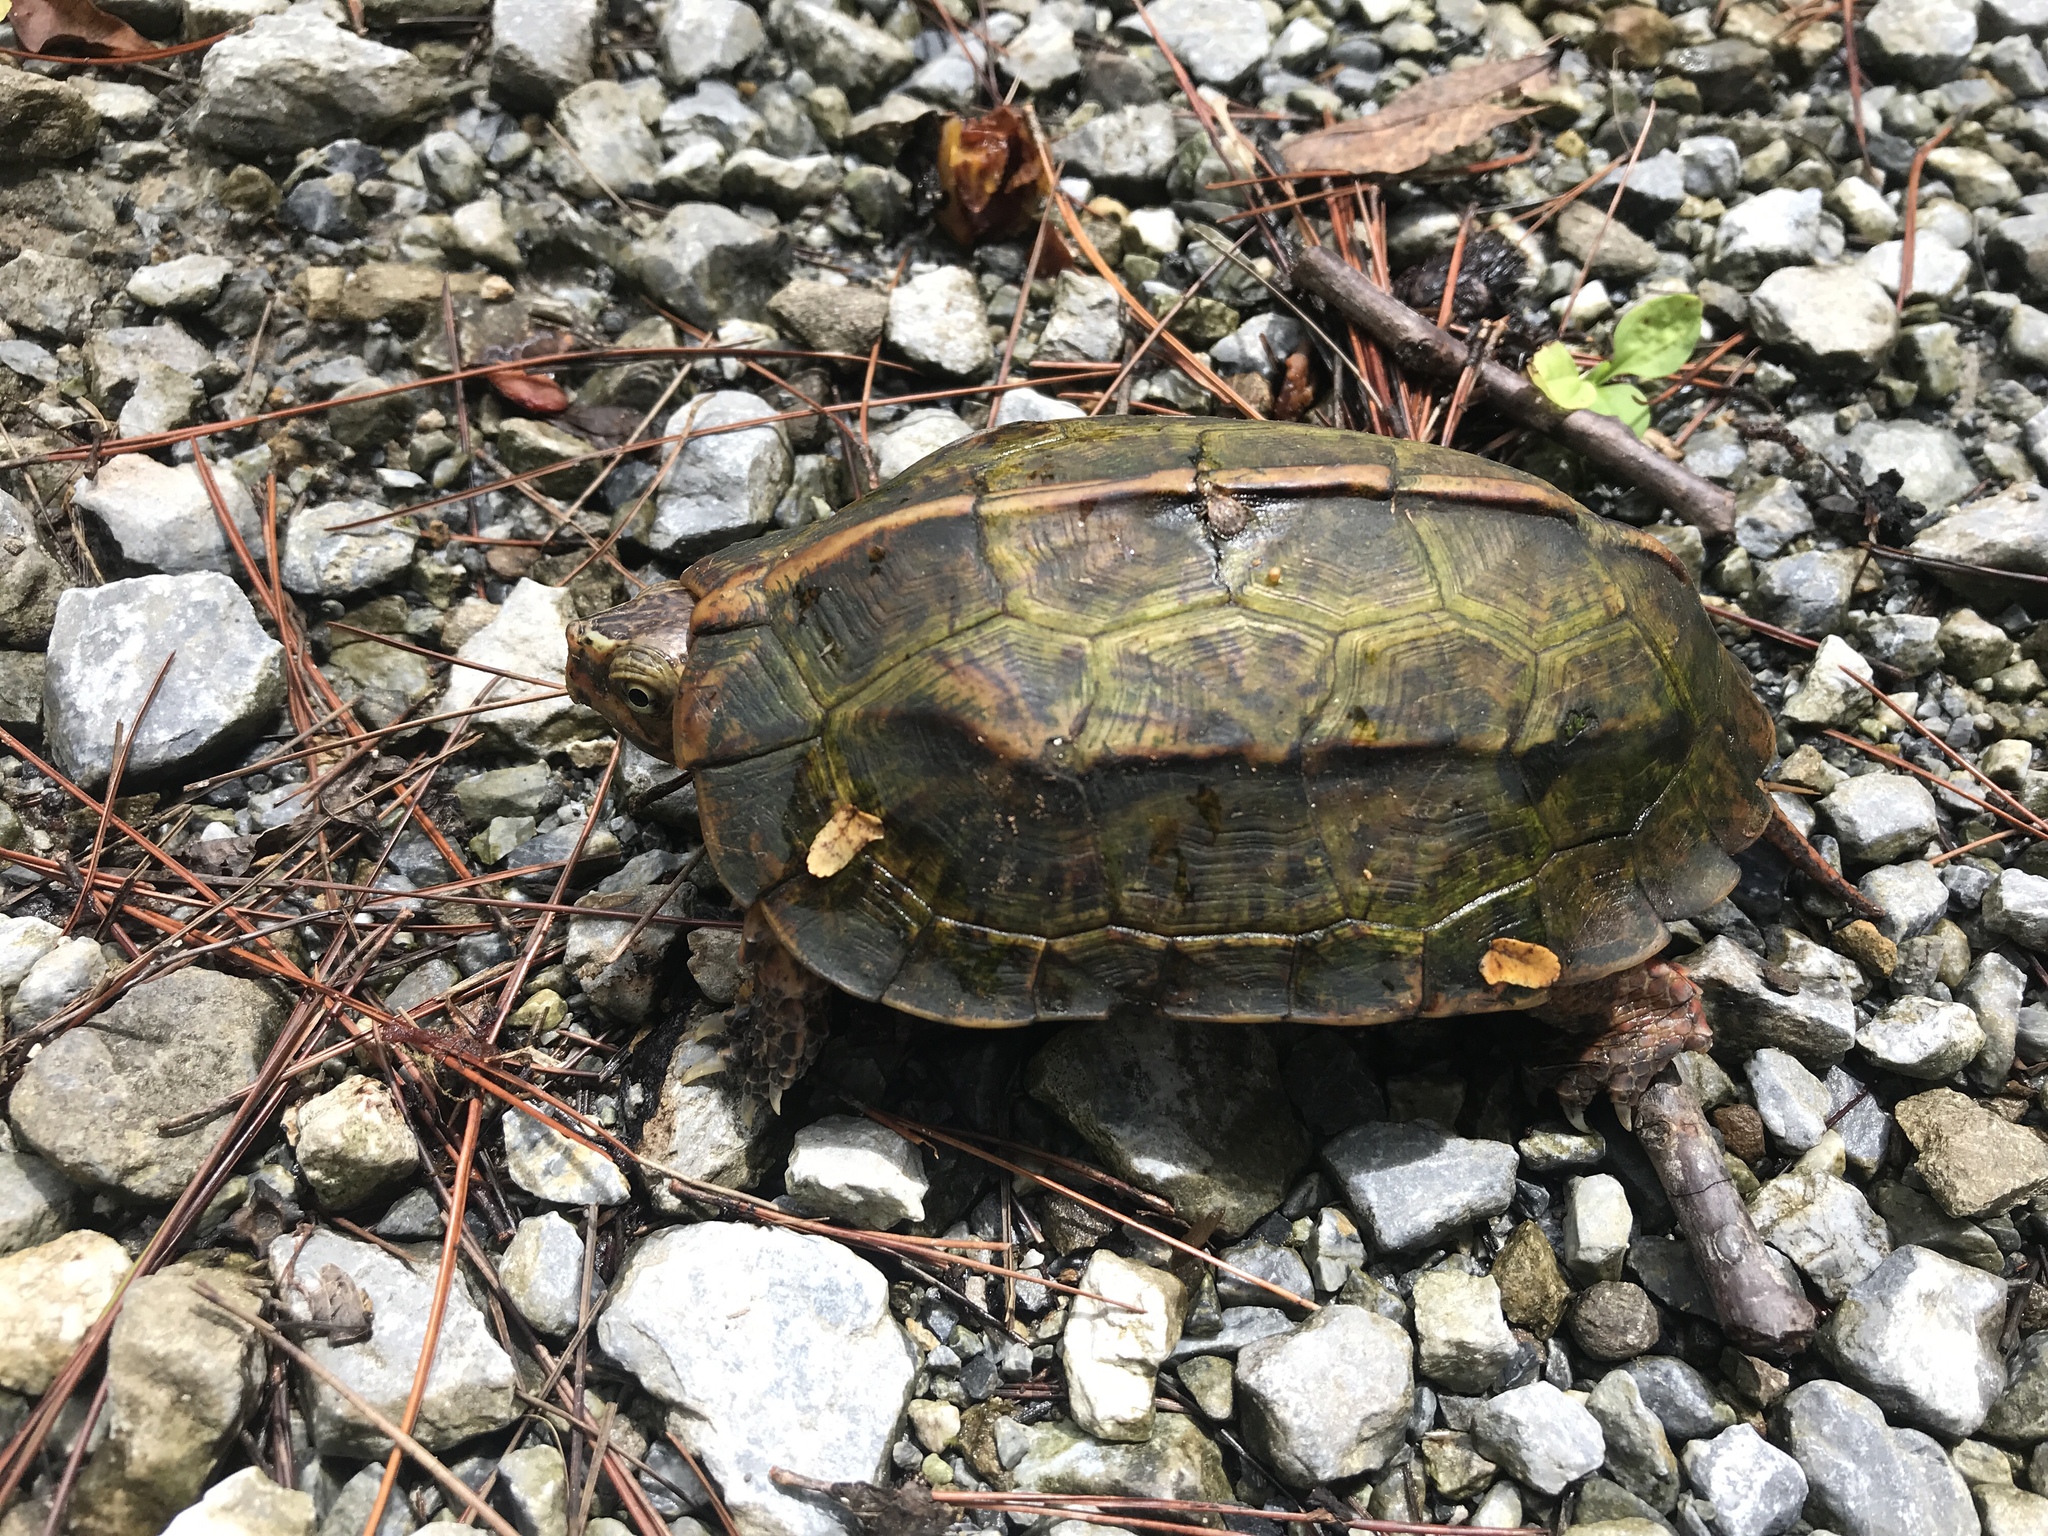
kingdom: Animalia
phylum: Chordata
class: Testudines
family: Geoemydidae
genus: Geoemyda
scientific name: Geoemyda japonica
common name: Okinawa black-breasted leaf turtle
